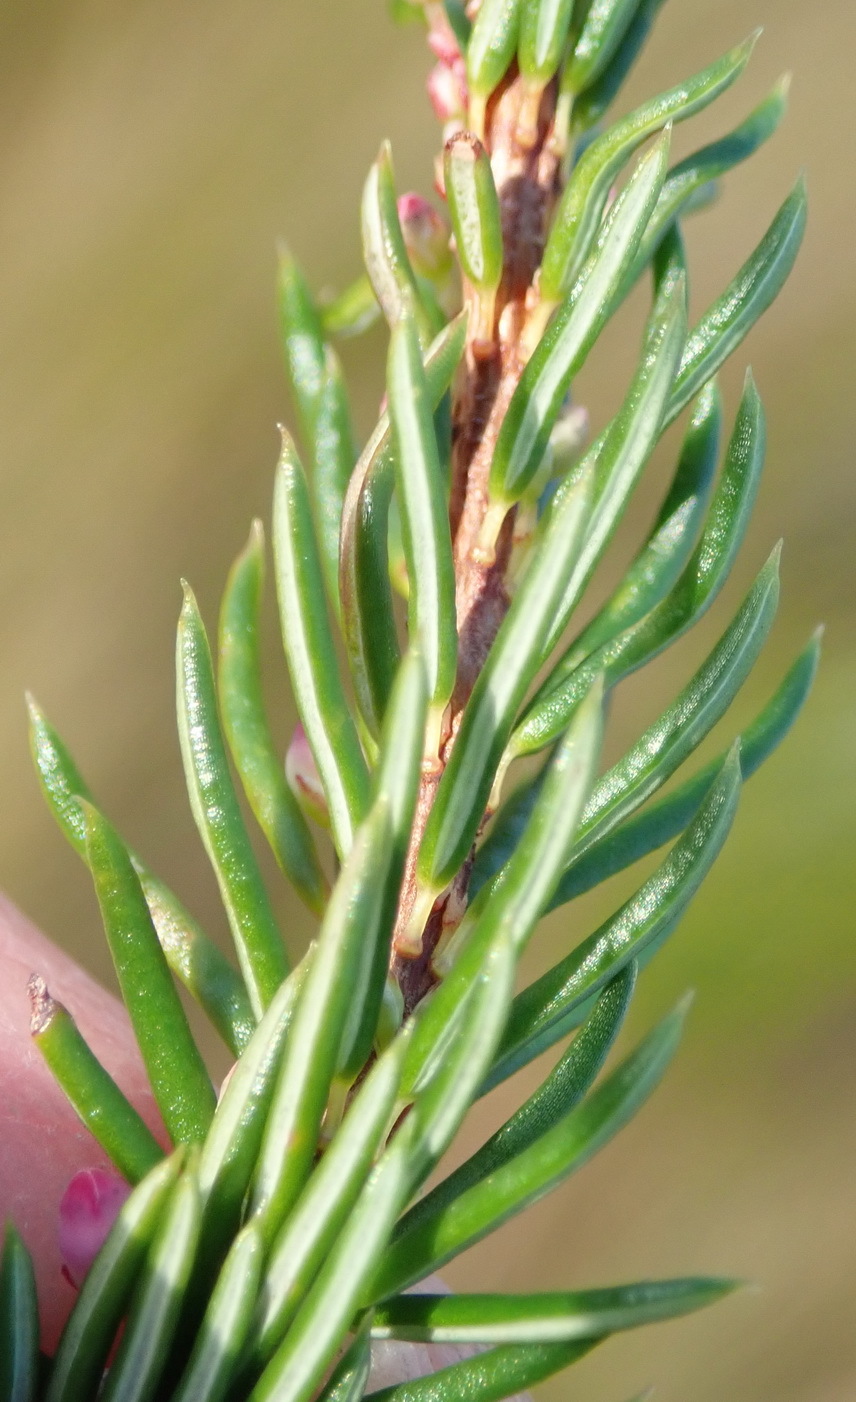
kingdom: Plantae
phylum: Tracheophyta
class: Magnoliopsida
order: Ericales
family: Ericaceae
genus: Erica
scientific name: Erica regerminans
